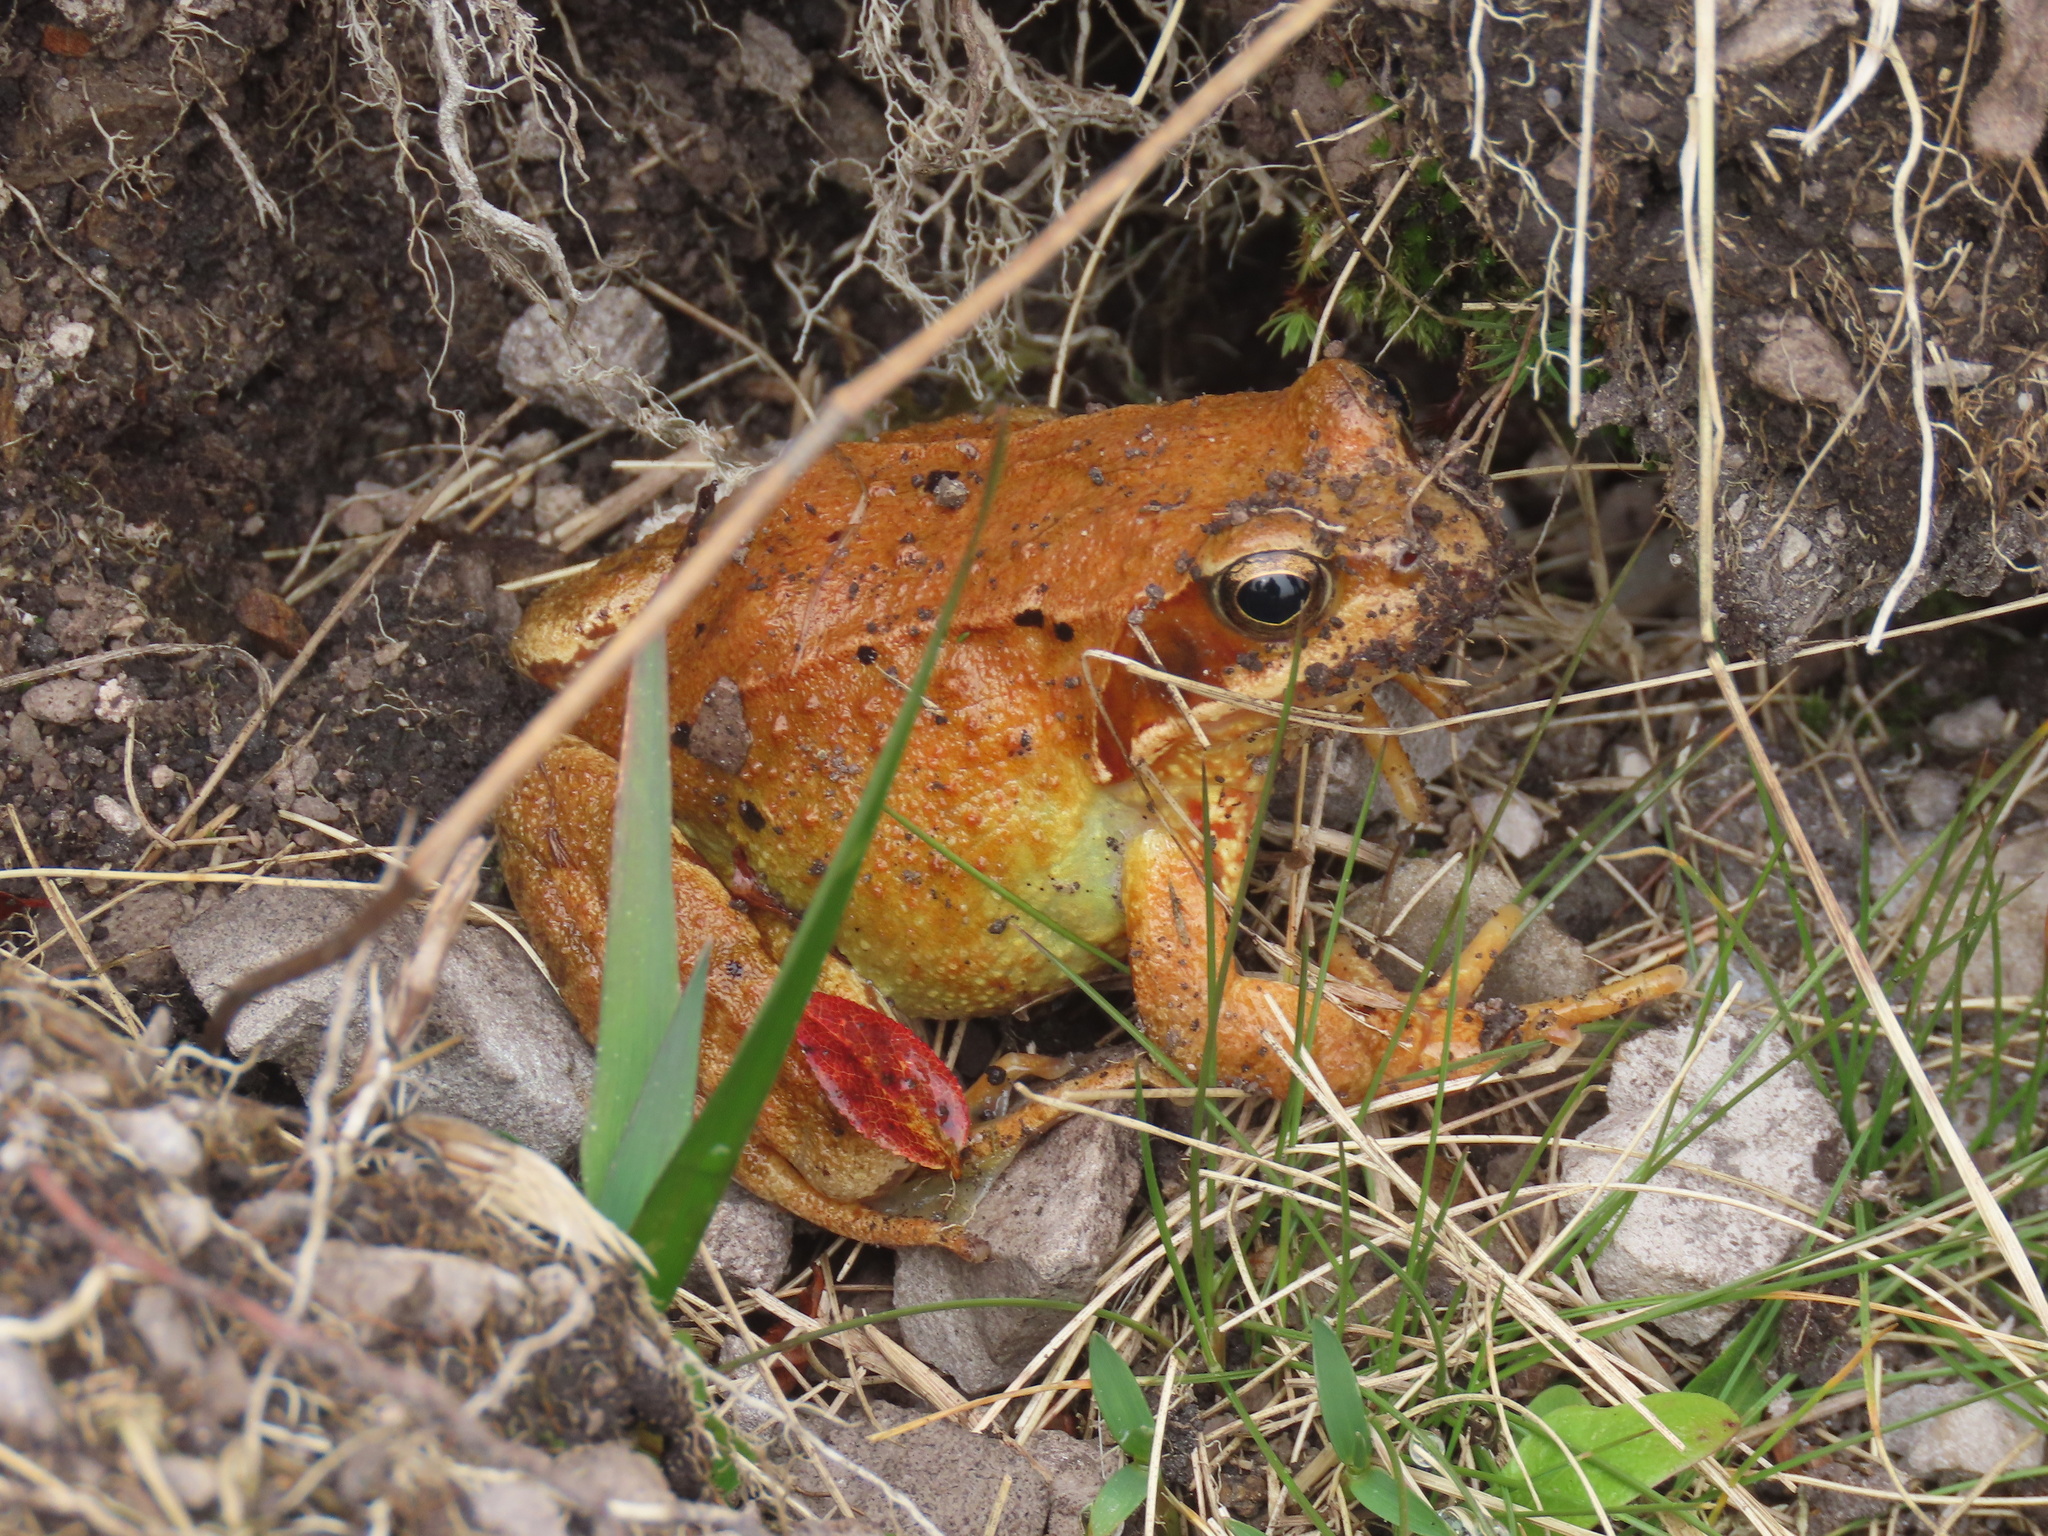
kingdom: Animalia
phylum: Chordata
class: Amphibia
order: Anura
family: Ranidae
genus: Rana
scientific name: Rana temporaria
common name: Common frog
